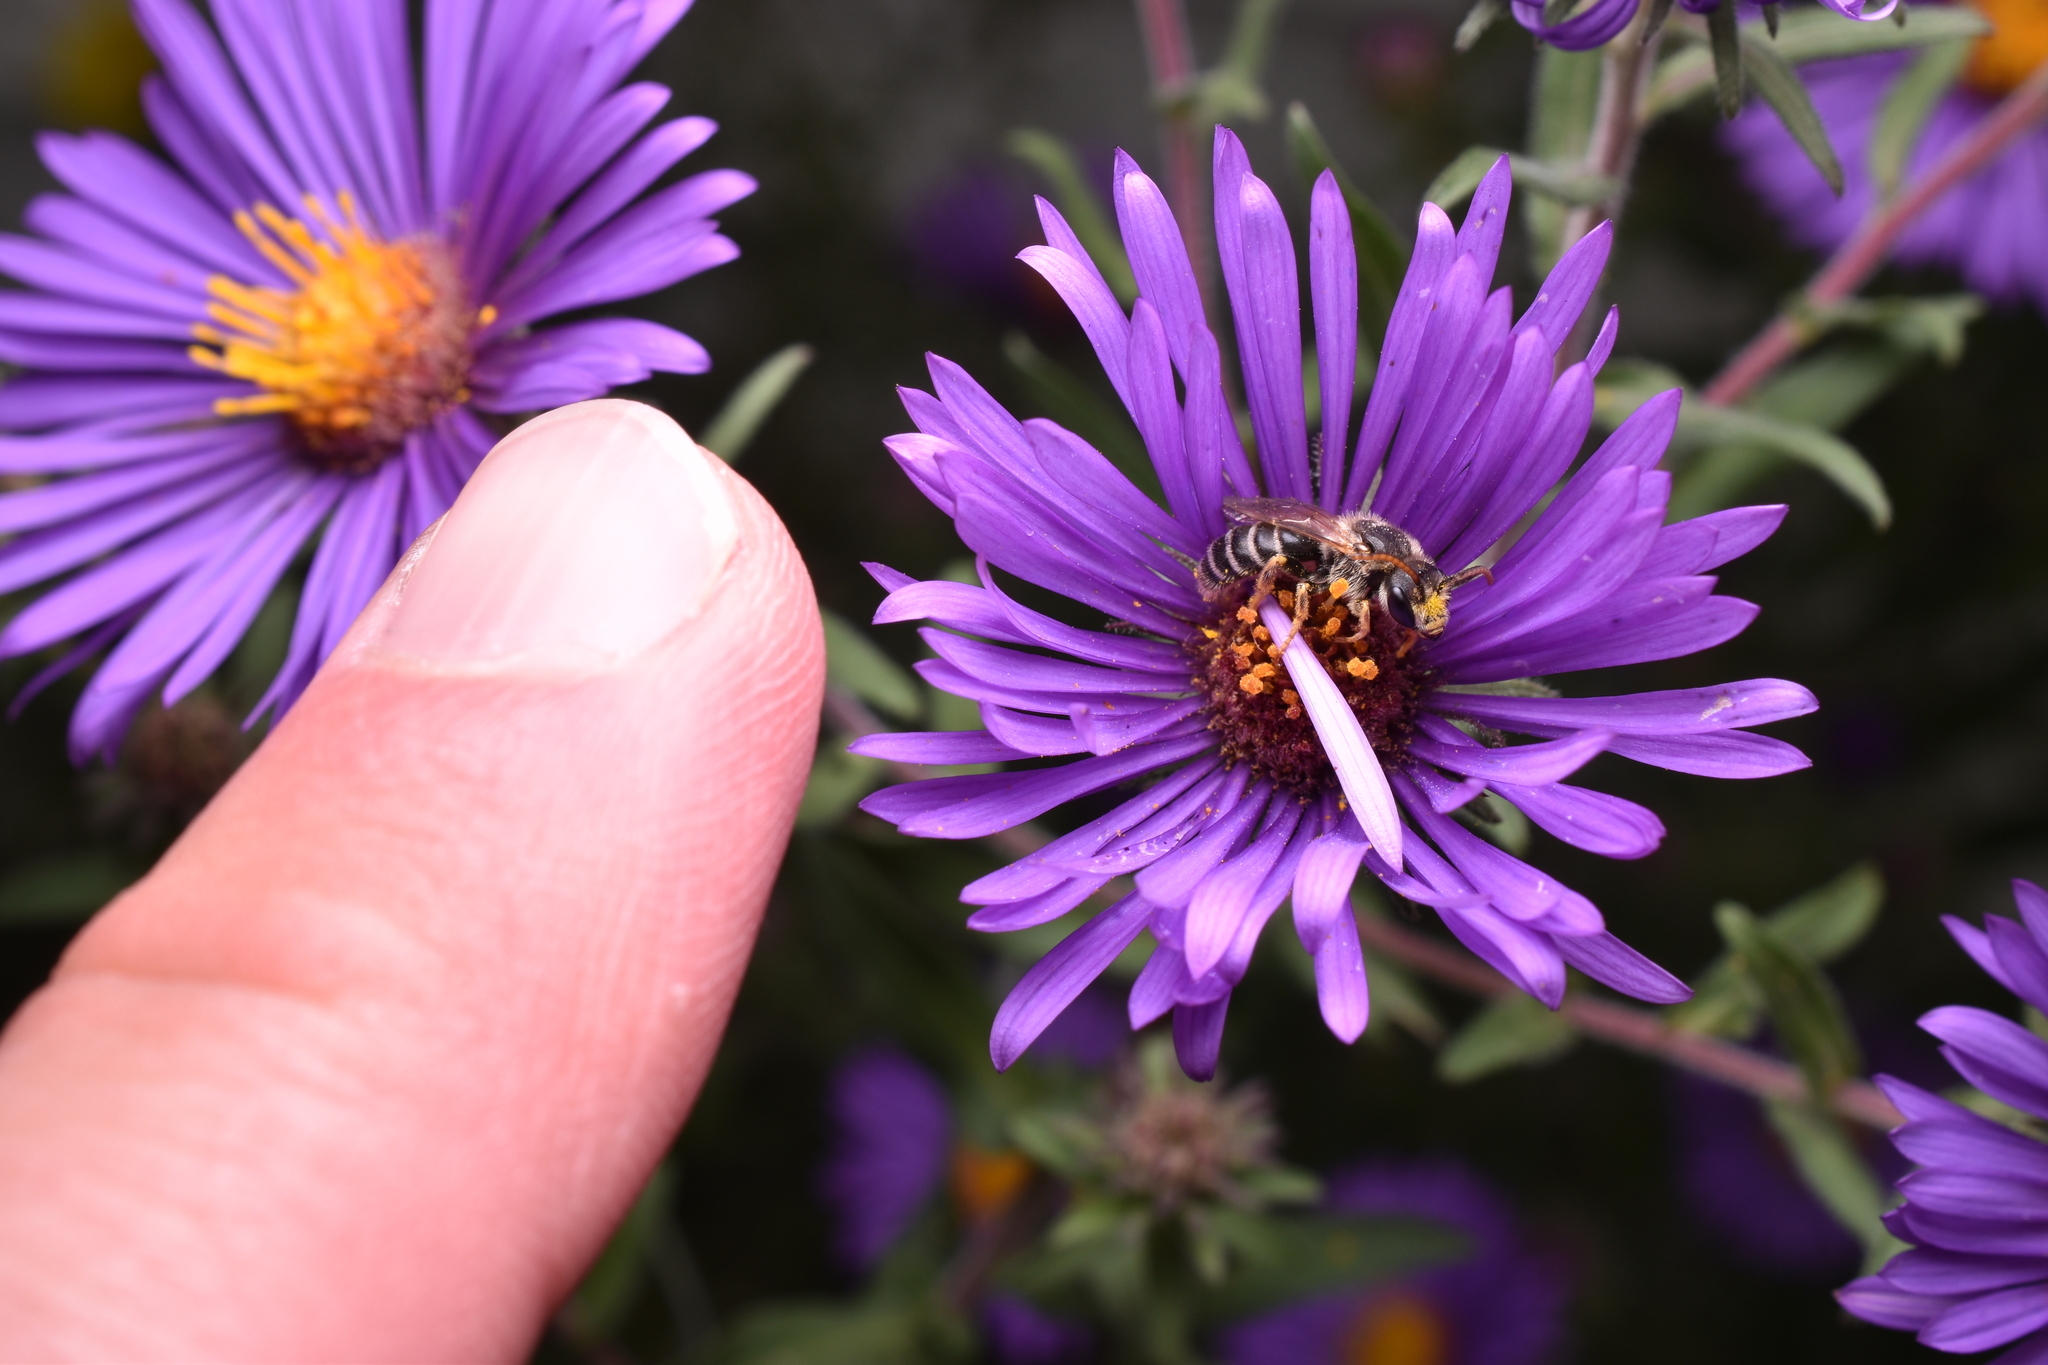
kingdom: Animalia
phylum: Arthropoda
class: Insecta
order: Hymenoptera
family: Halictidae
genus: Halictus
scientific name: Halictus ligatus
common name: Ligated furrow bee
